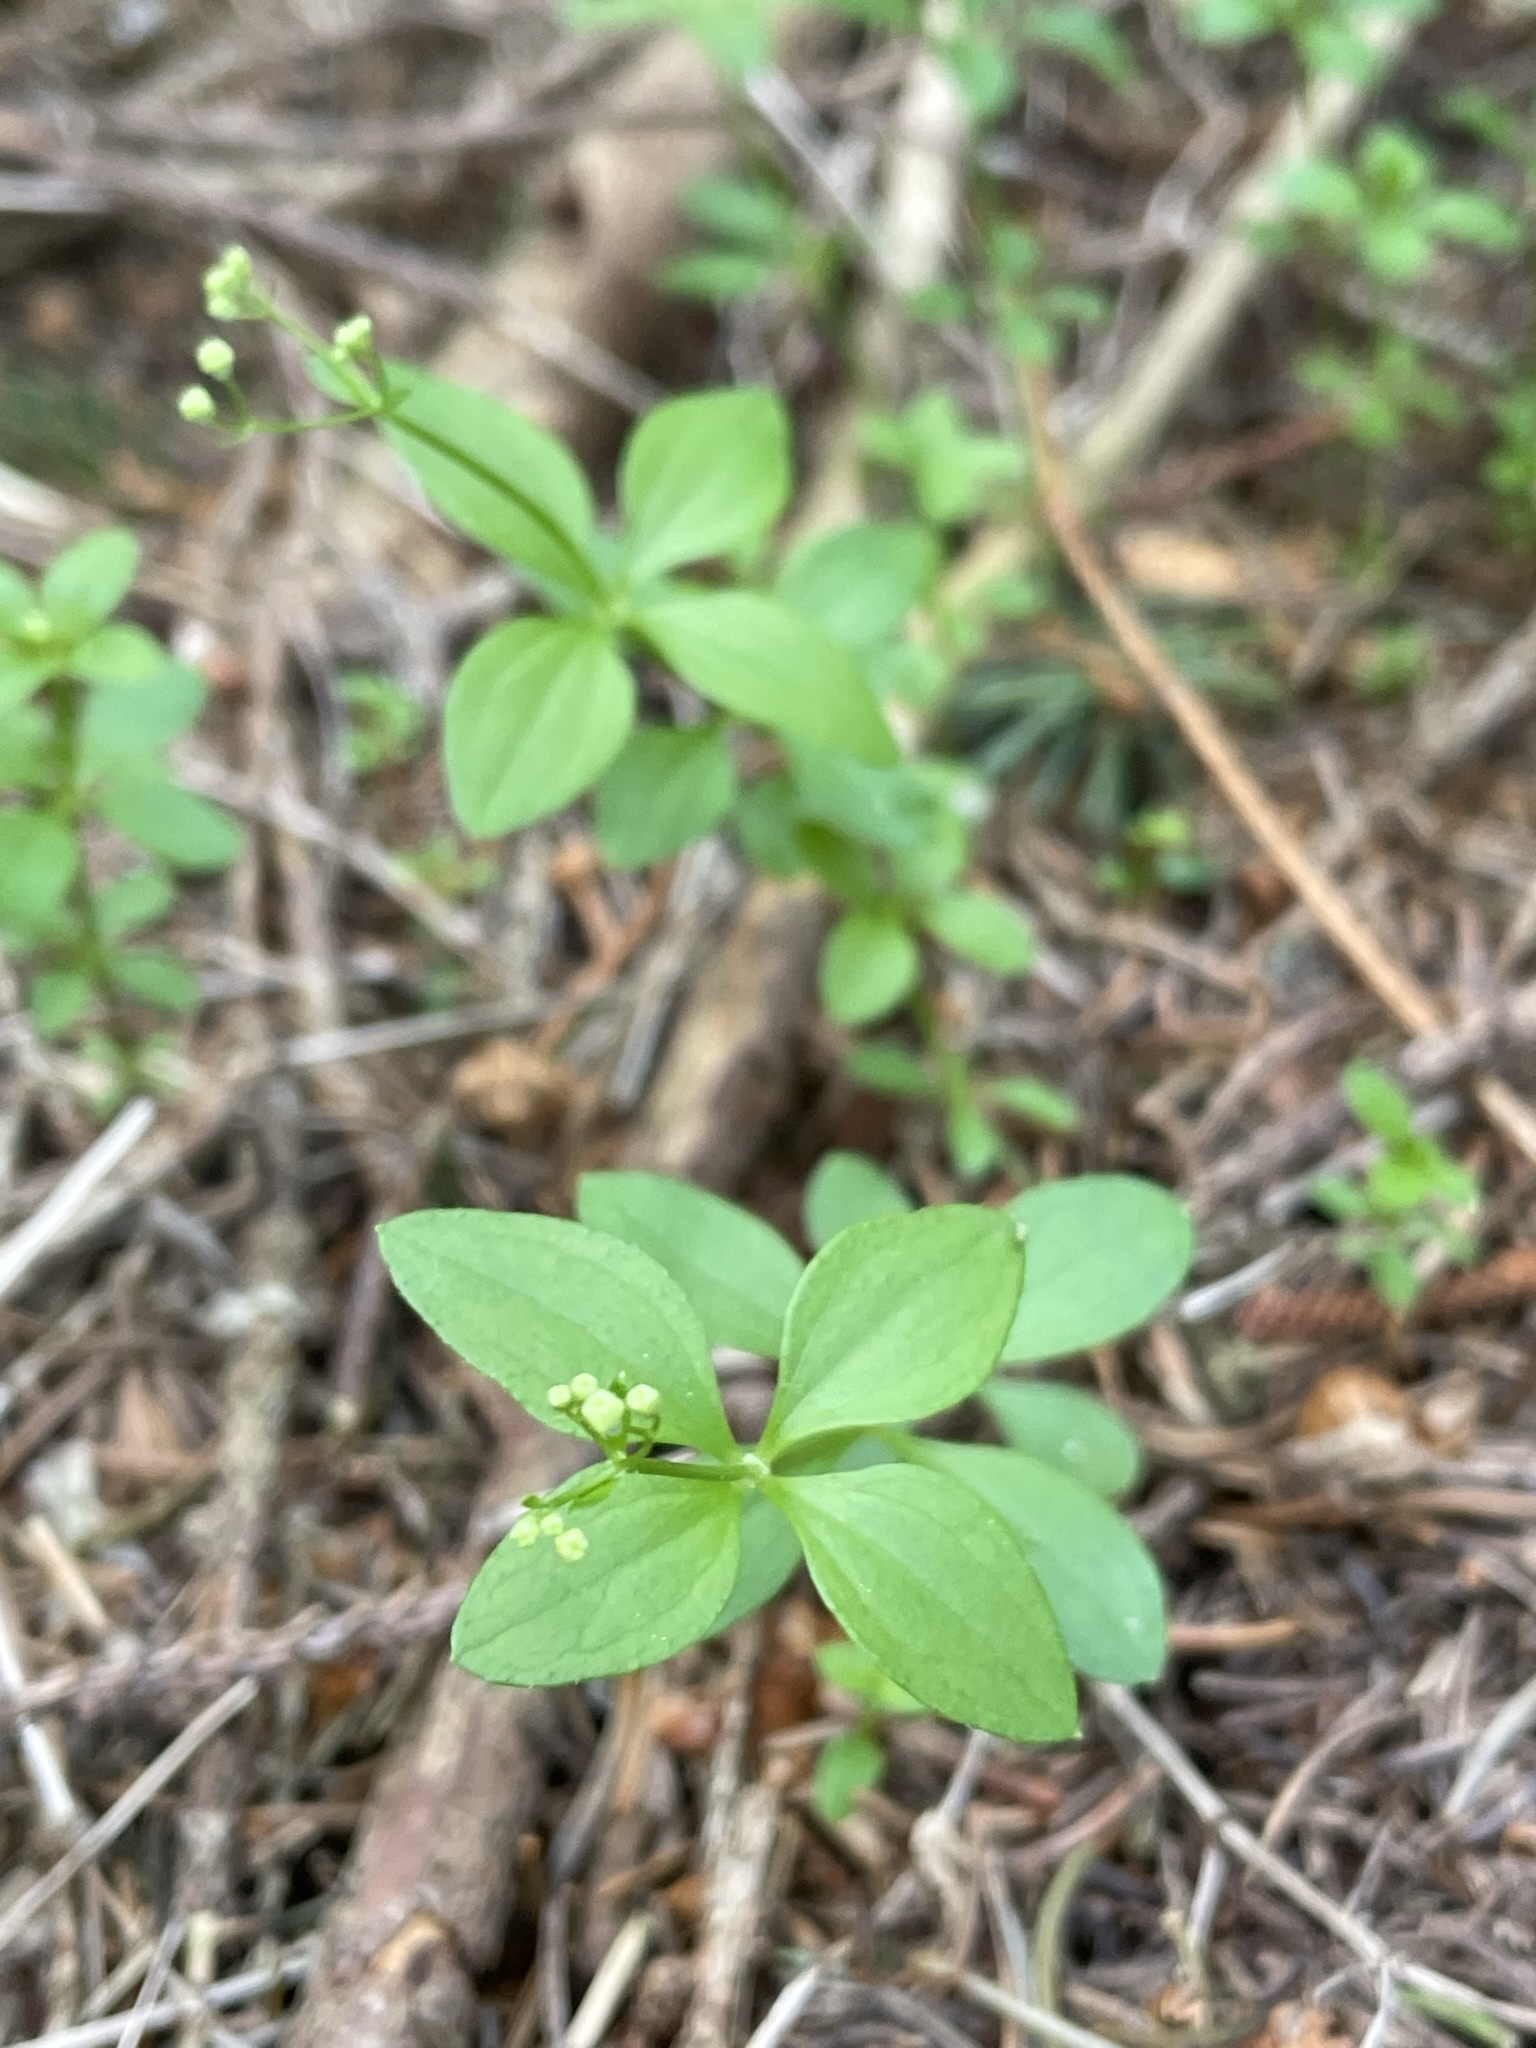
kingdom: Plantae
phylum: Tracheophyta
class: Magnoliopsida
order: Gentianales
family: Rubiaceae
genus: Galium
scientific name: Galium rotundifolium
